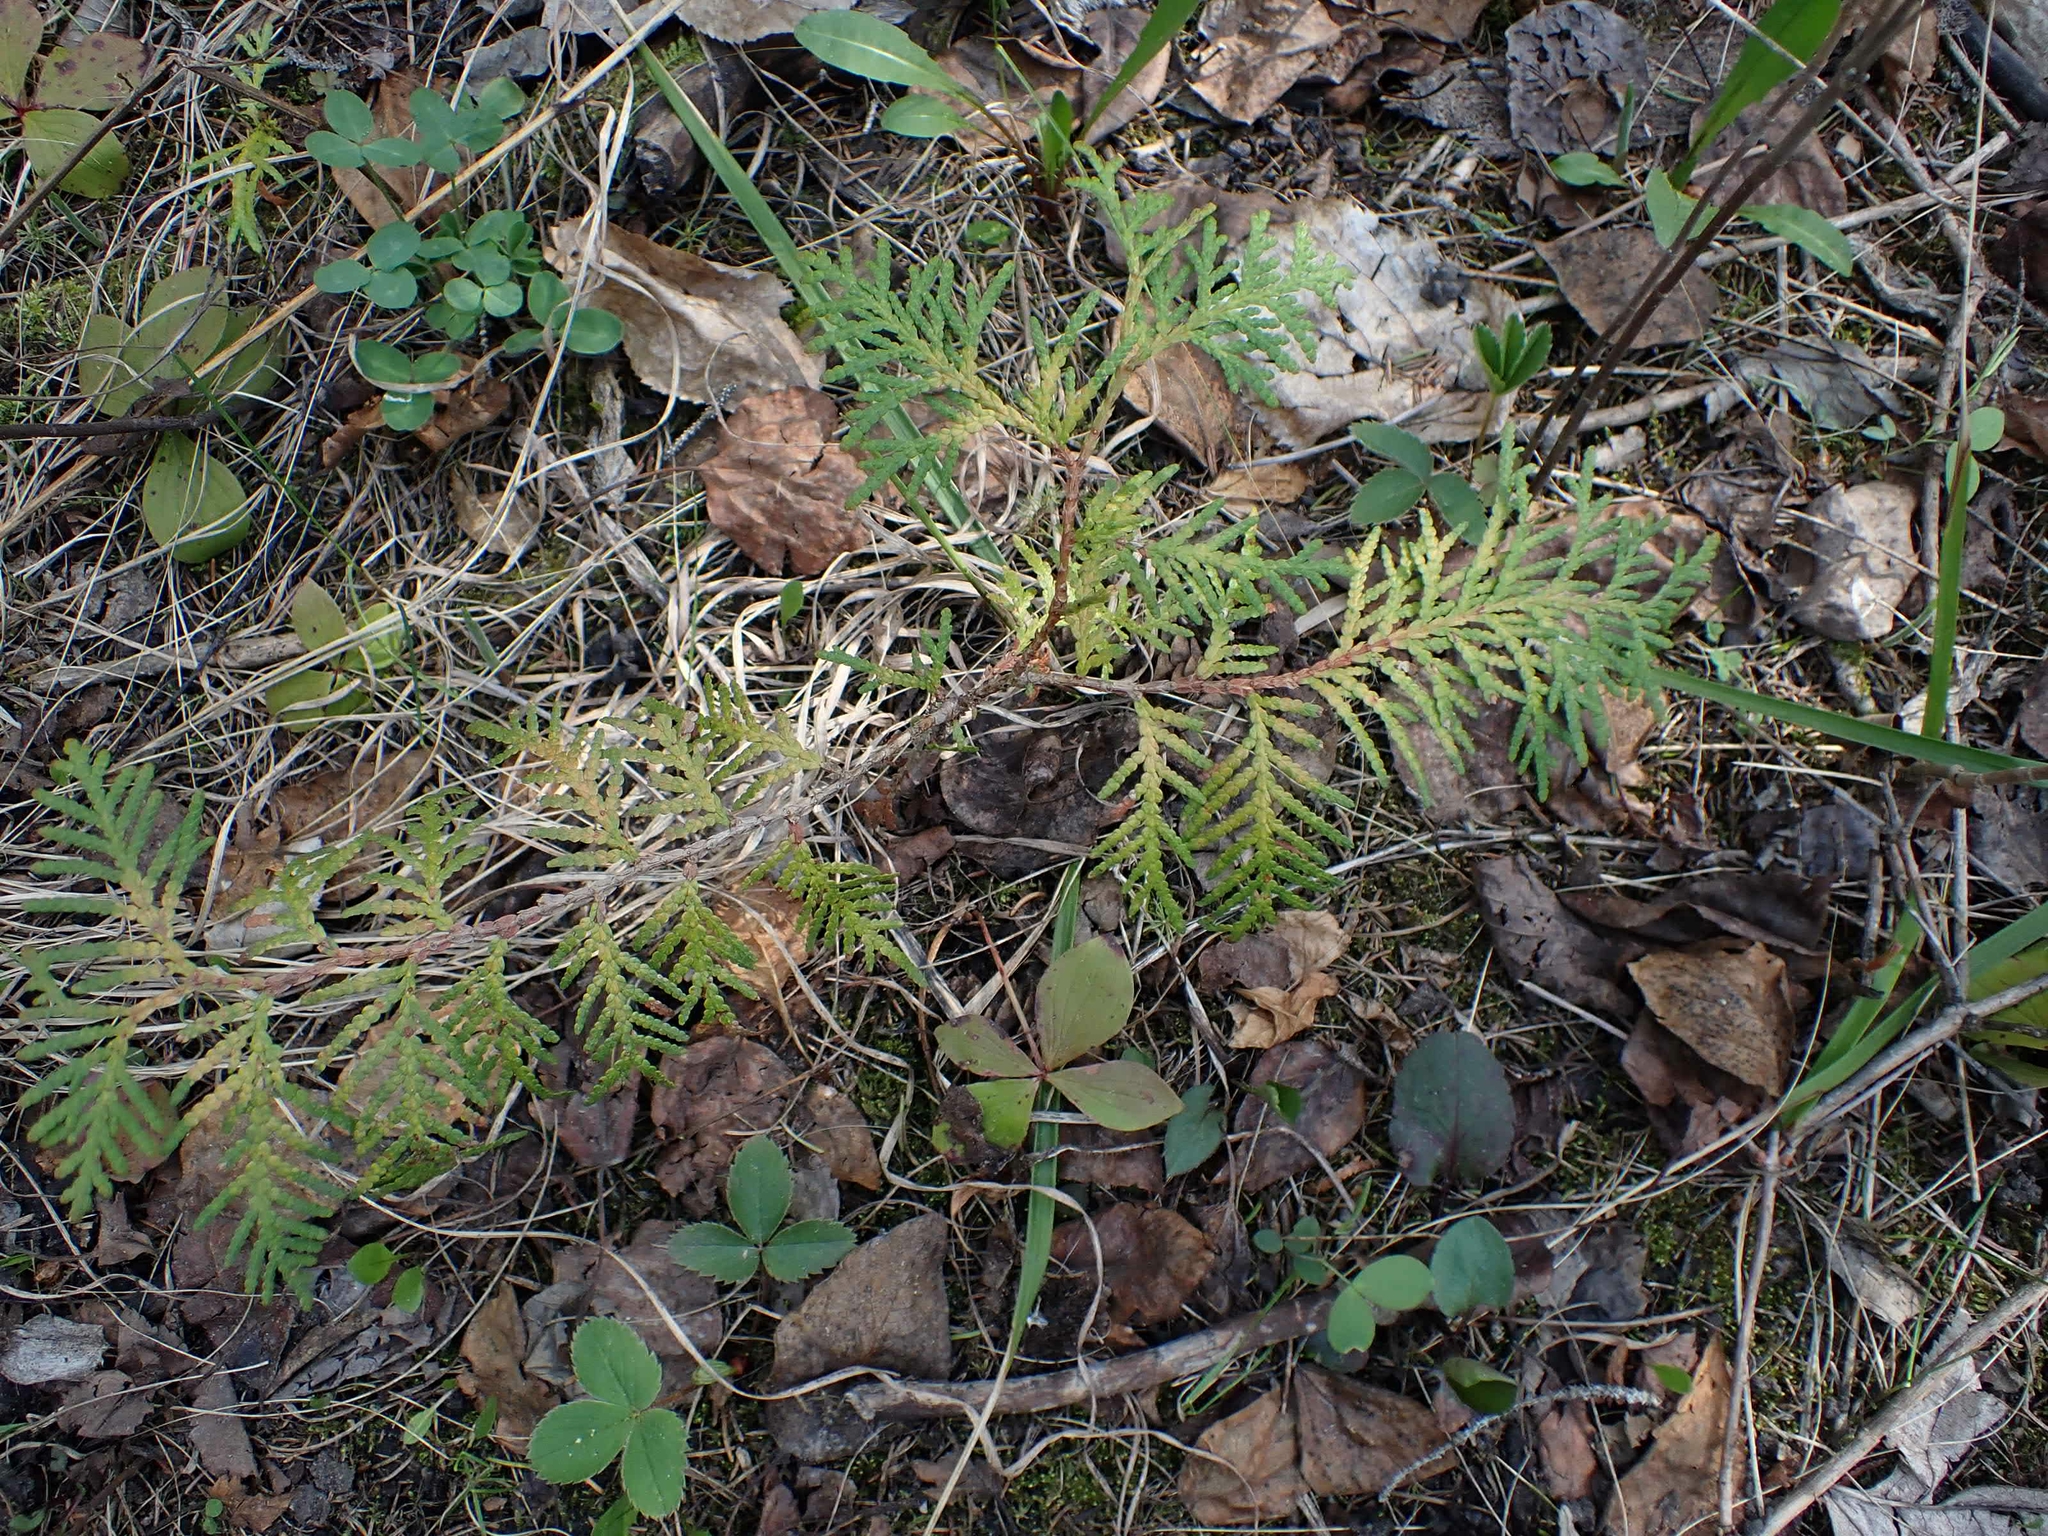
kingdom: Plantae
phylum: Tracheophyta
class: Pinopsida
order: Pinales
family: Cupressaceae
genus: Thuja
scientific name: Thuja occidentalis
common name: Northern white-cedar
